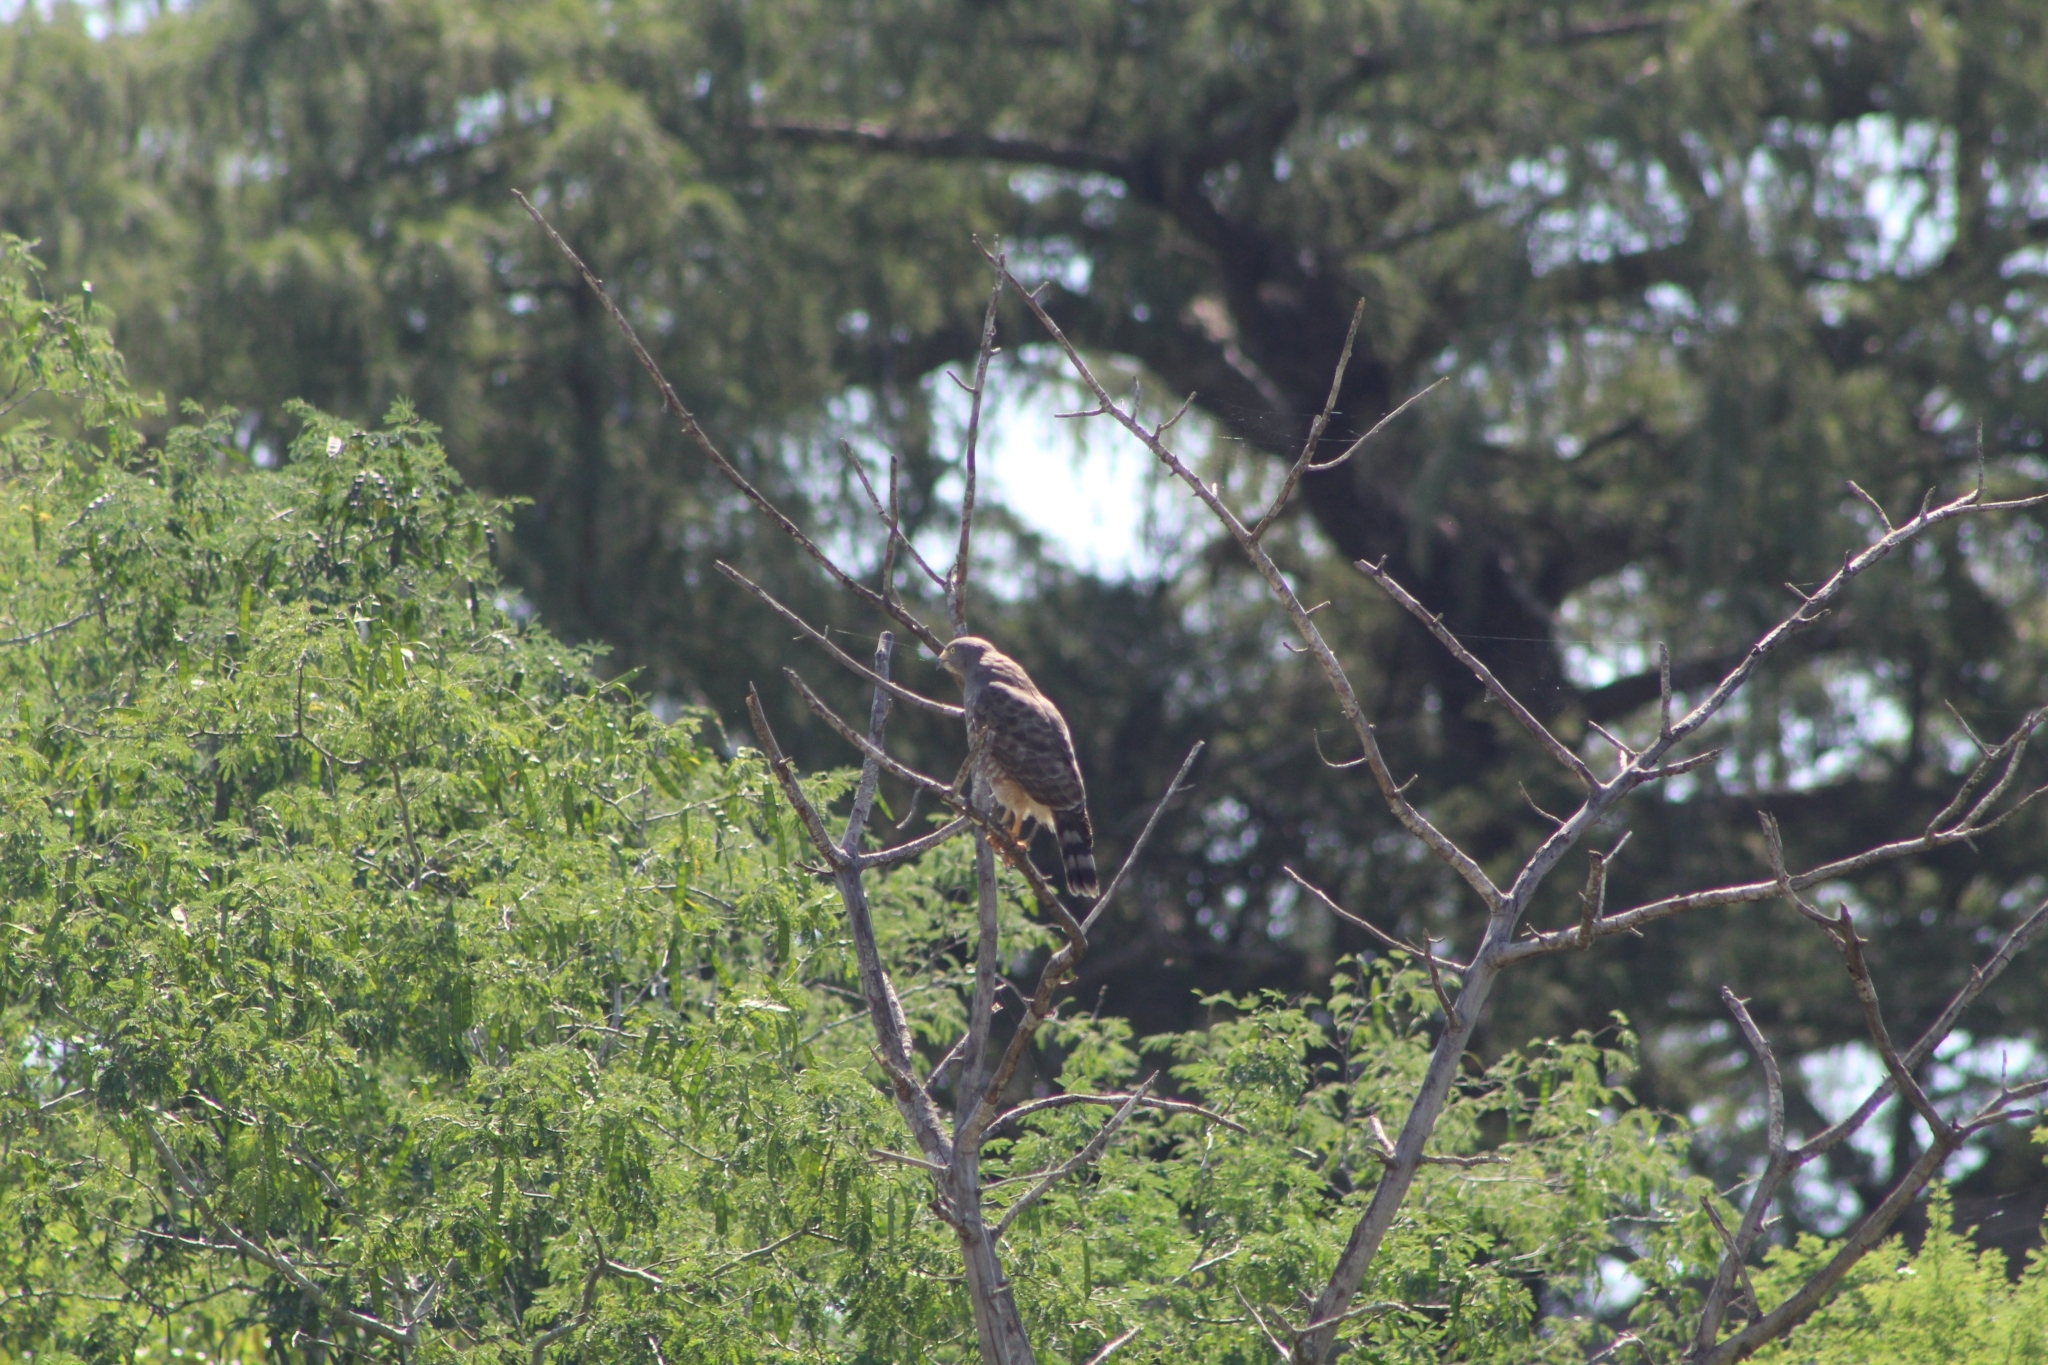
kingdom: Animalia
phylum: Chordata
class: Aves
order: Accipitriformes
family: Accipitridae
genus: Rupornis
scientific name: Rupornis magnirostris
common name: Roadside hawk
